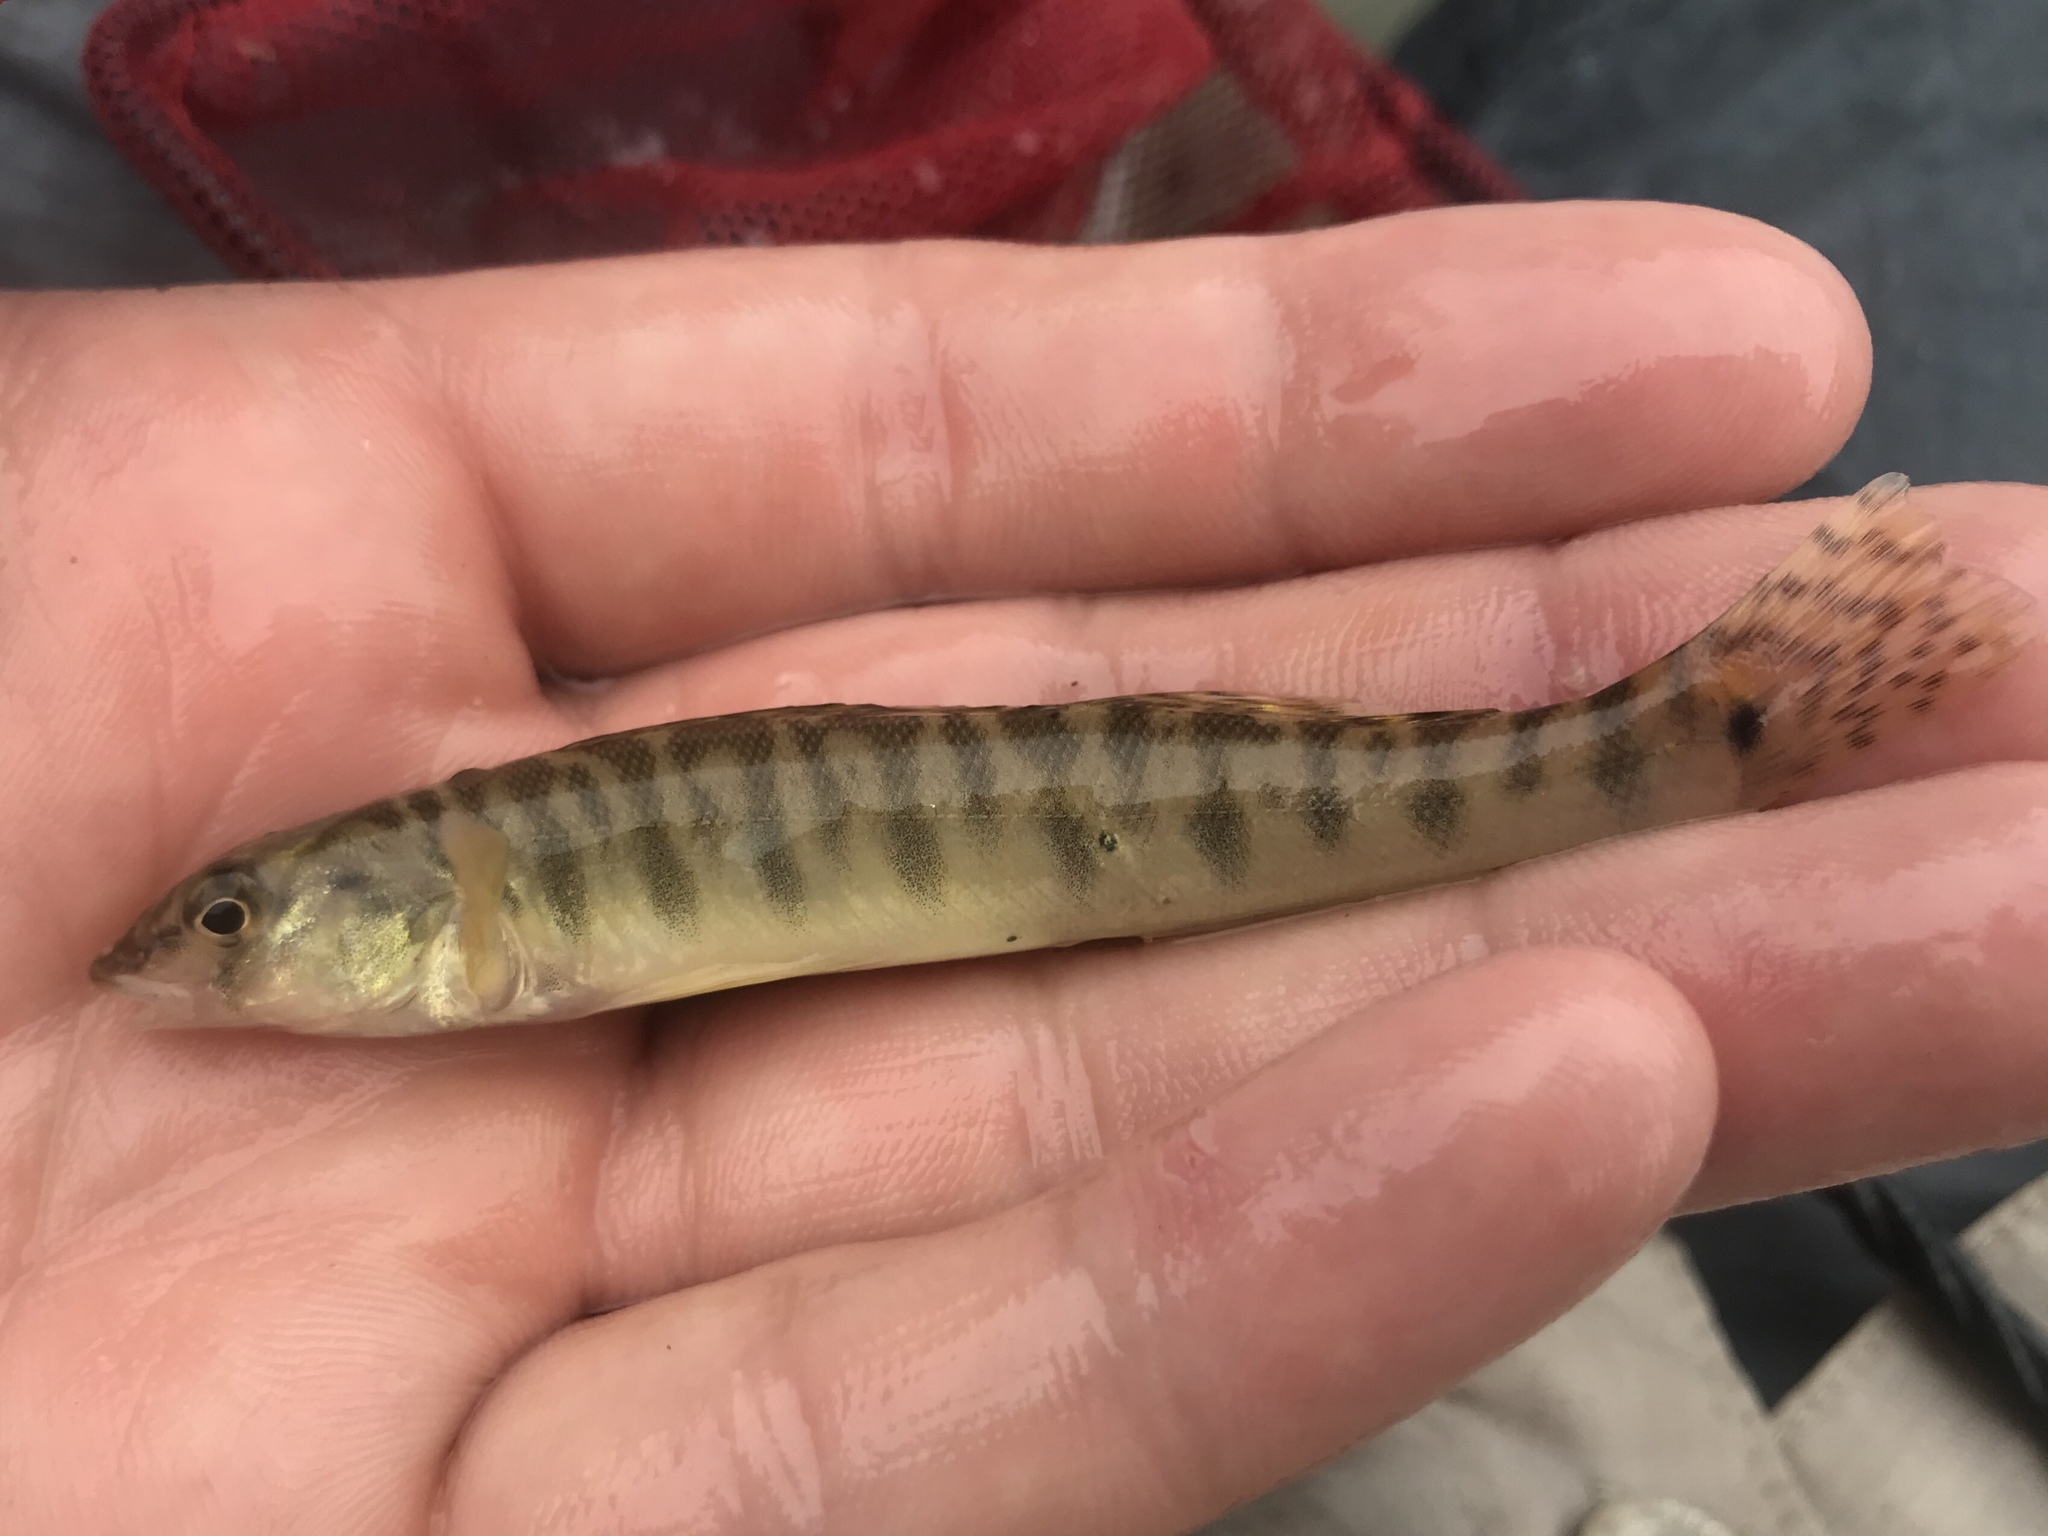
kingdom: Animalia
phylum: Chordata
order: Perciformes
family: Percidae
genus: Percina
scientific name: Percina carbonaria
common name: Texas logperch
